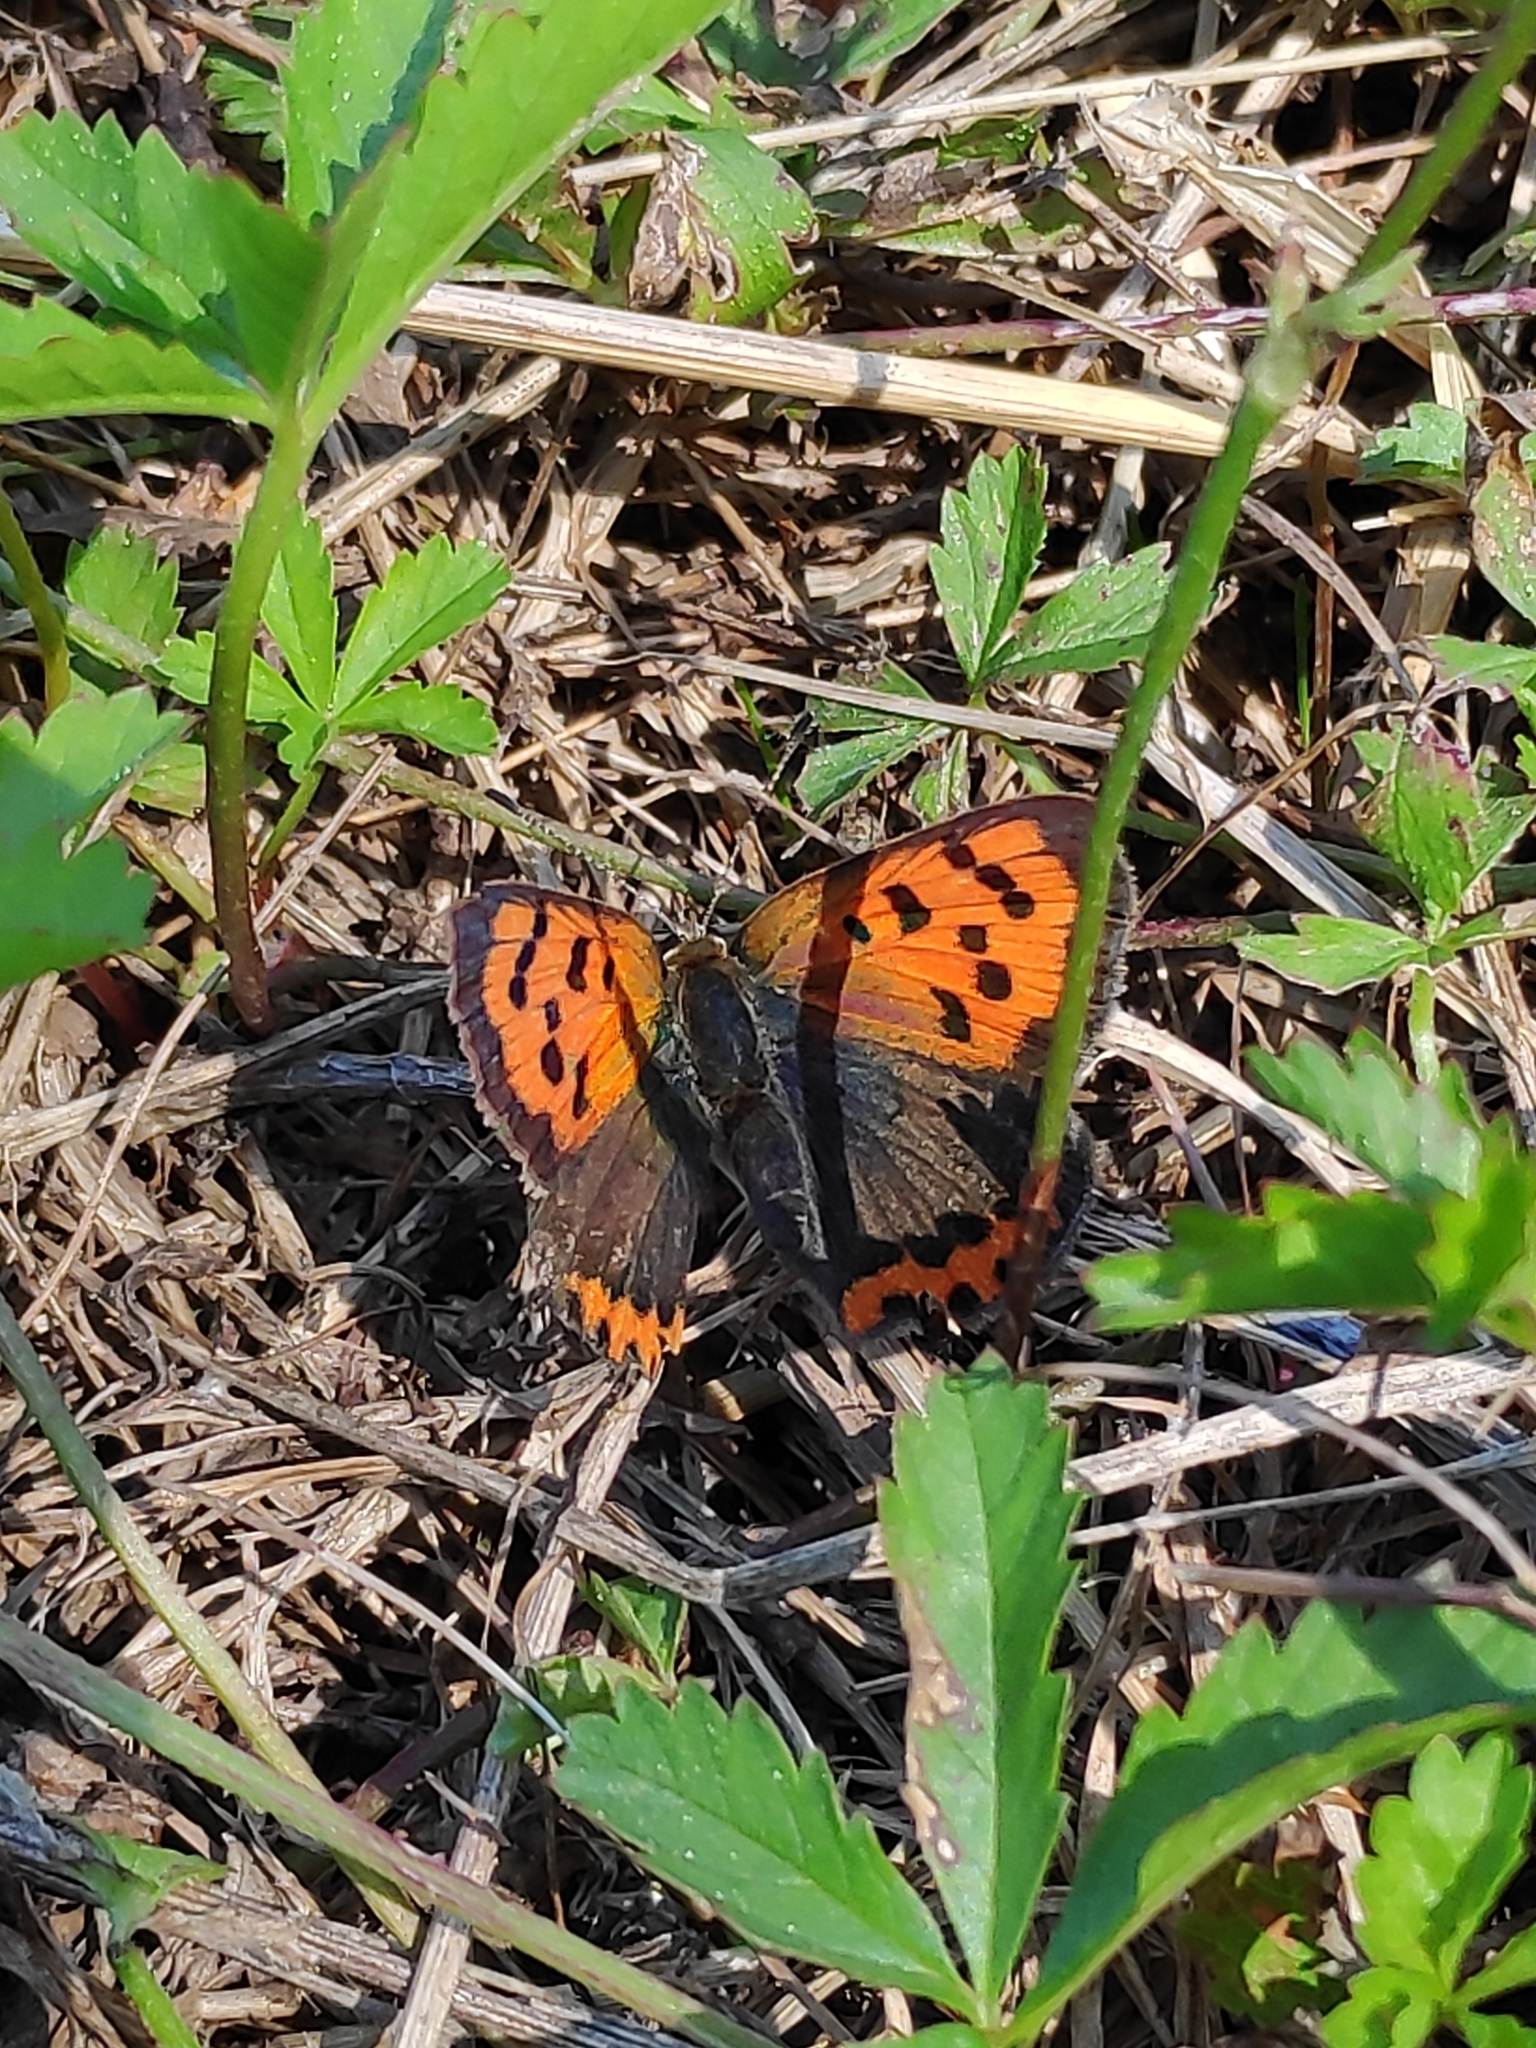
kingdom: Animalia
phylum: Arthropoda
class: Insecta
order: Lepidoptera
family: Lycaenidae
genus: Lycaena
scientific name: Lycaena phlaeas
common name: Small copper
